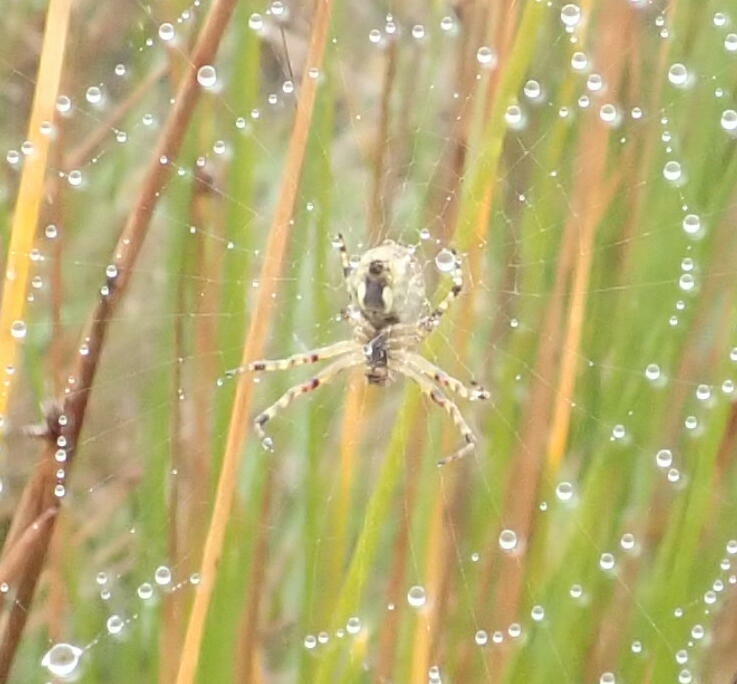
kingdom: Animalia
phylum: Arthropoda
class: Arachnida
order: Araneae
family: Araneidae
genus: Salsa
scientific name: Salsa fuliginata
